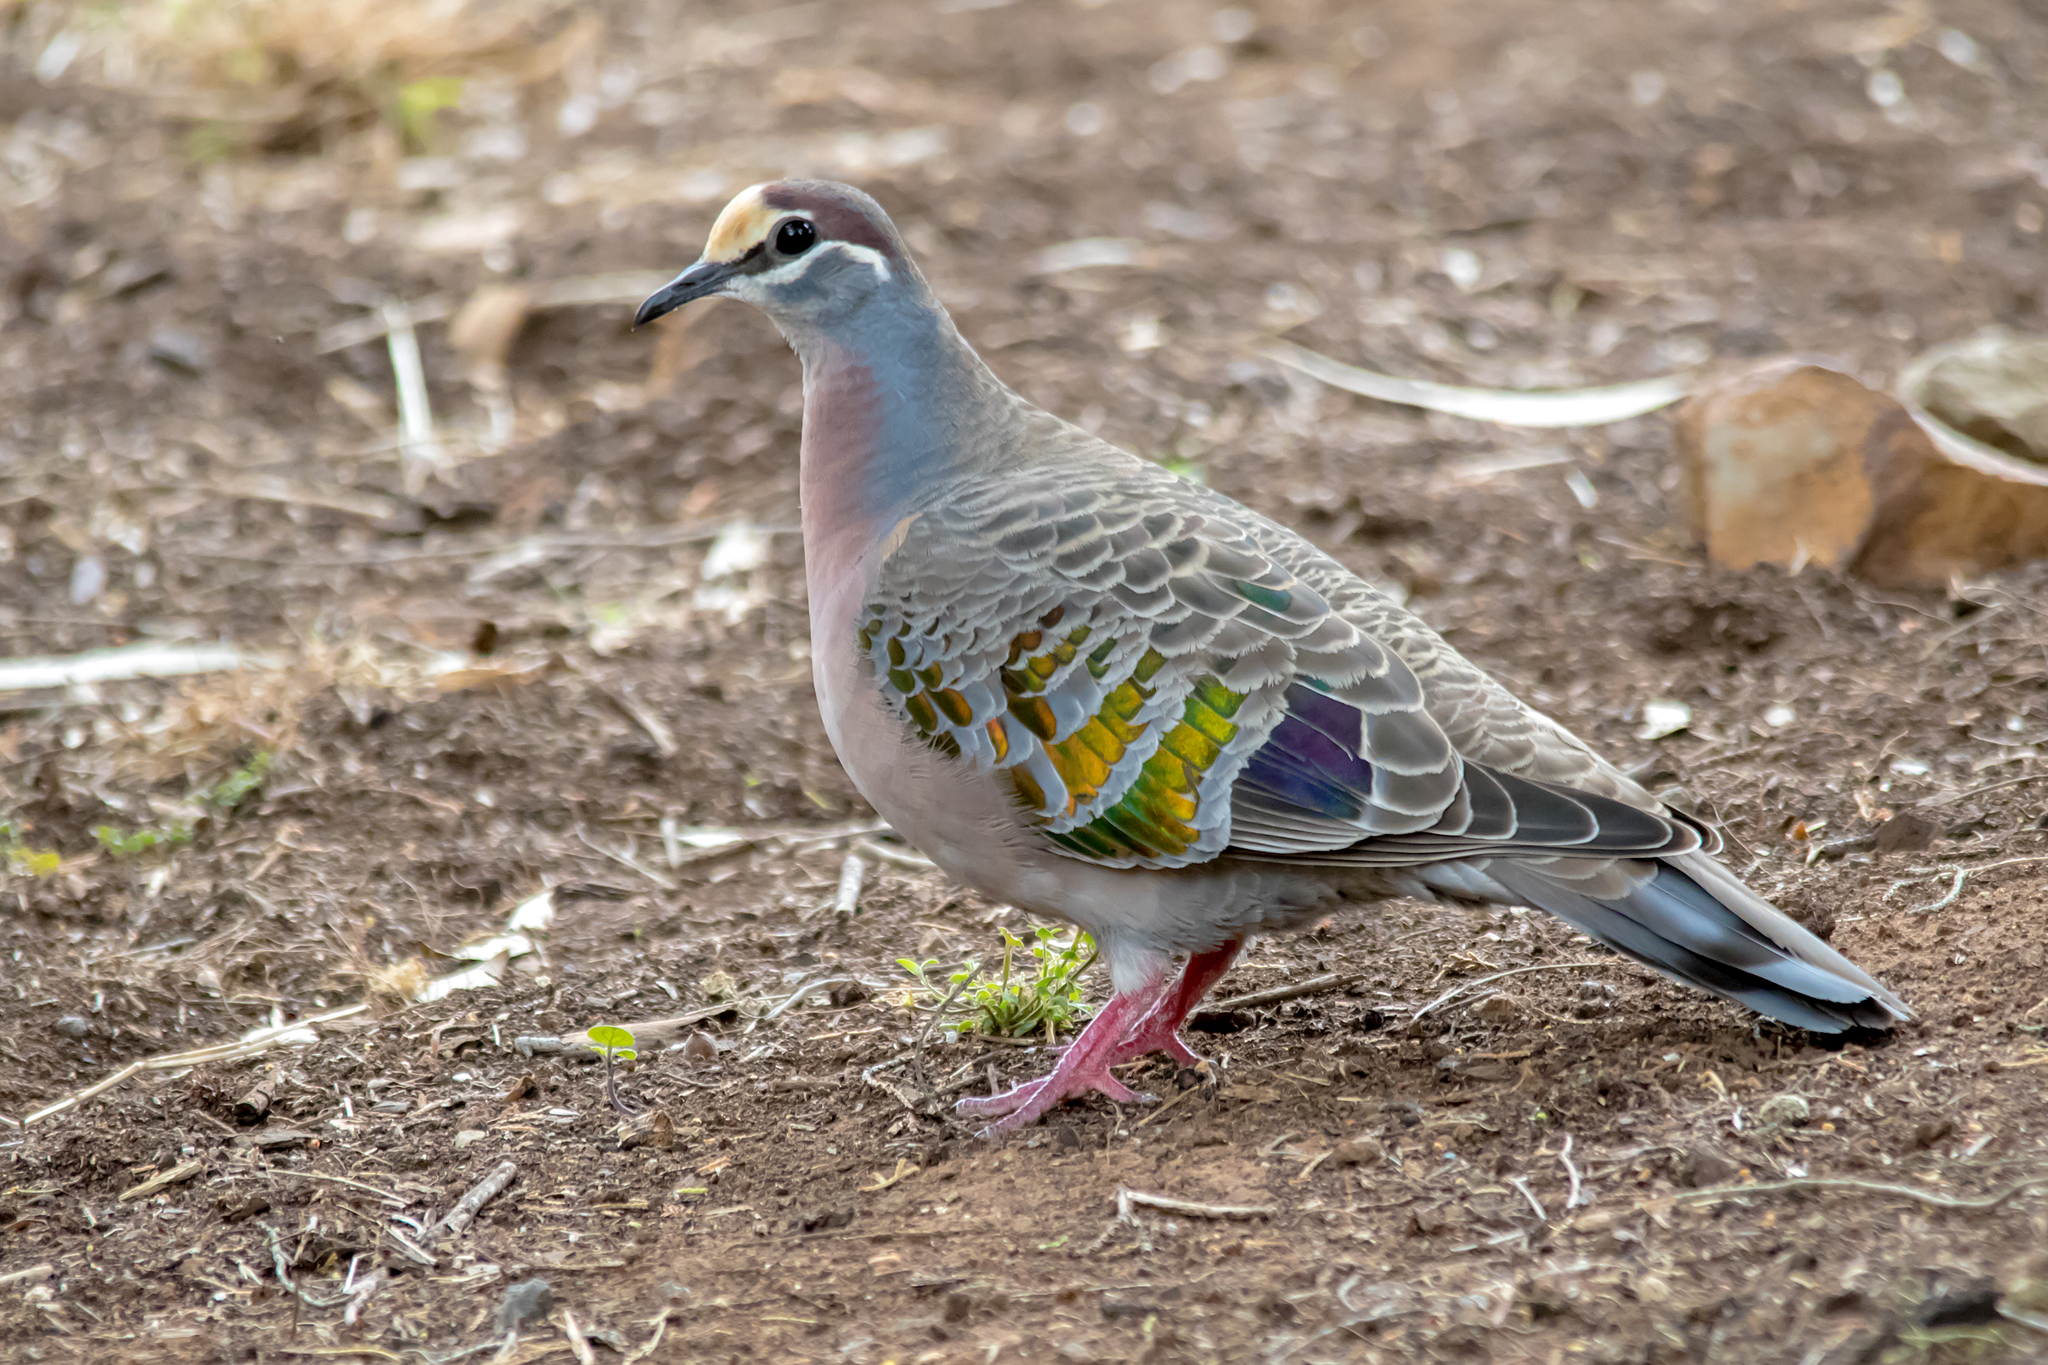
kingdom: Animalia
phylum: Chordata
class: Aves
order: Columbiformes
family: Columbidae
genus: Phaps
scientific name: Phaps chalcoptera
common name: Common bronzewing
